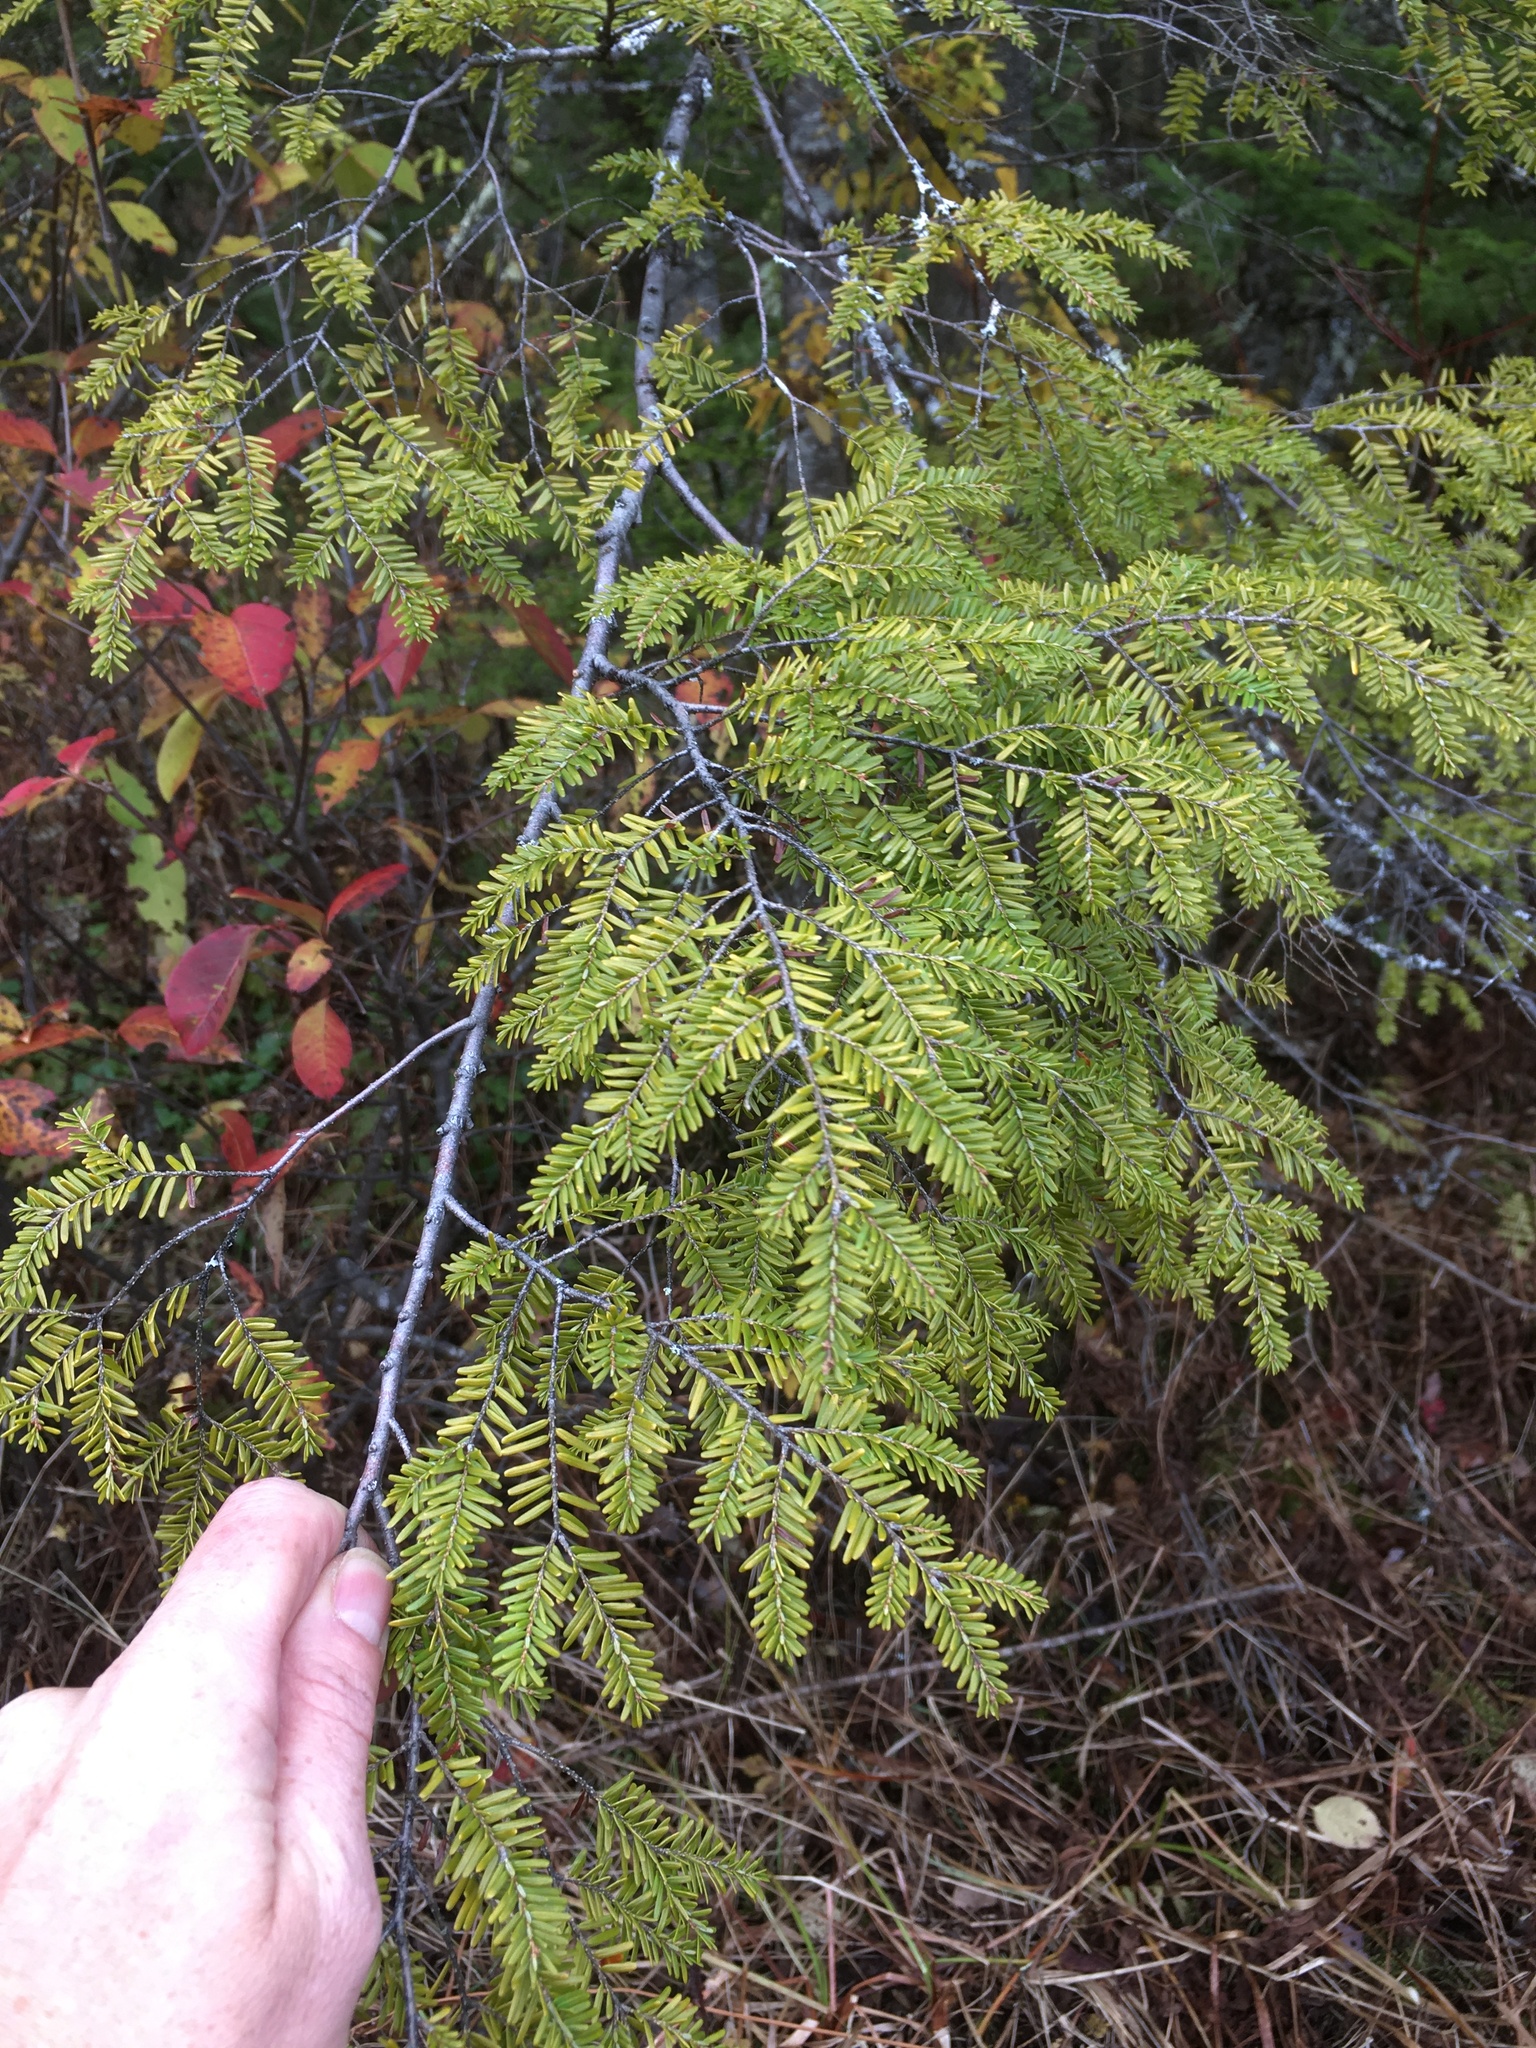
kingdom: Plantae
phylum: Tracheophyta
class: Pinopsida
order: Pinales
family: Pinaceae
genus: Tsuga
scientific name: Tsuga canadensis
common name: Eastern hemlock
